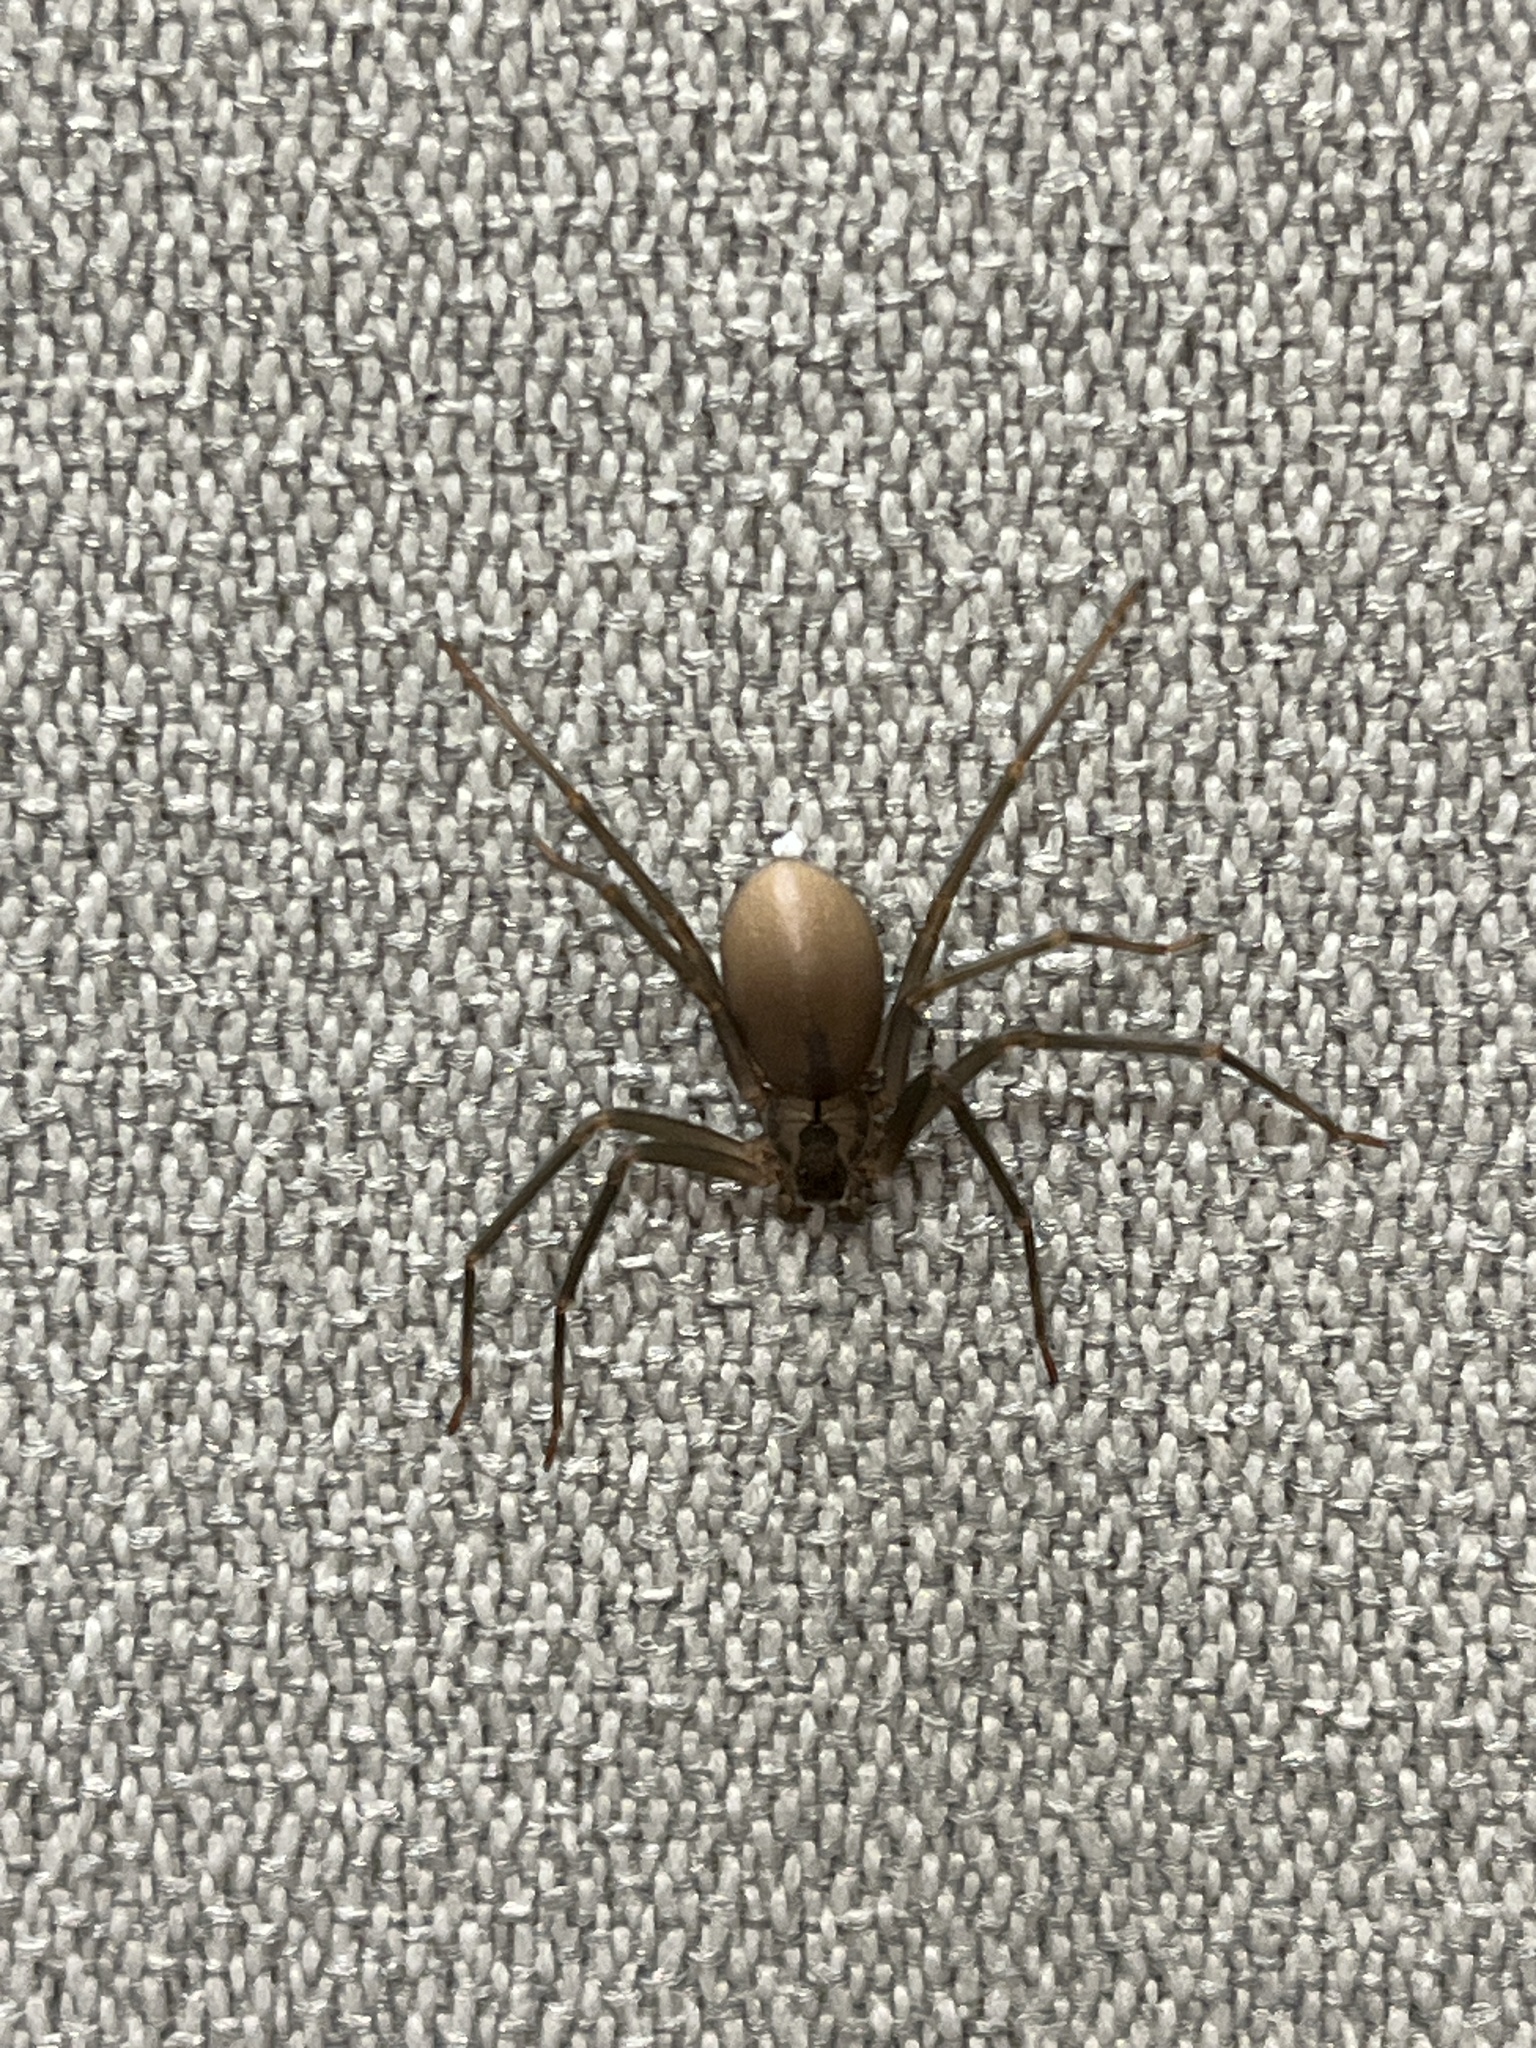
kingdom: Animalia
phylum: Arthropoda
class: Arachnida
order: Araneae
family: Sicariidae
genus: Loxosceles
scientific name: Loxosceles reclusa
